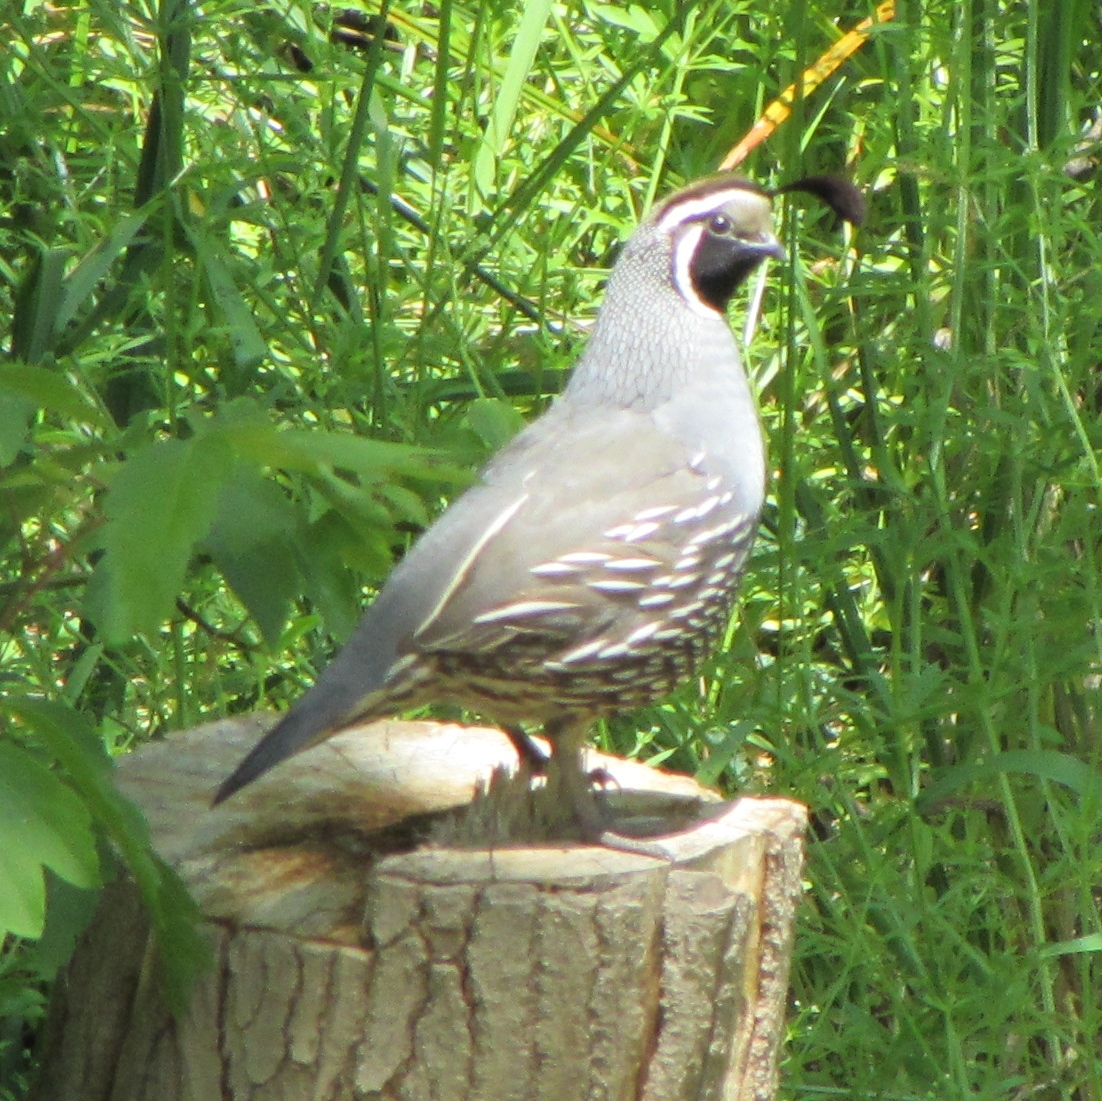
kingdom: Animalia
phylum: Chordata
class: Aves
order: Galliformes
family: Odontophoridae
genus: Callipepla
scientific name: Callipepla californica
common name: California quail
